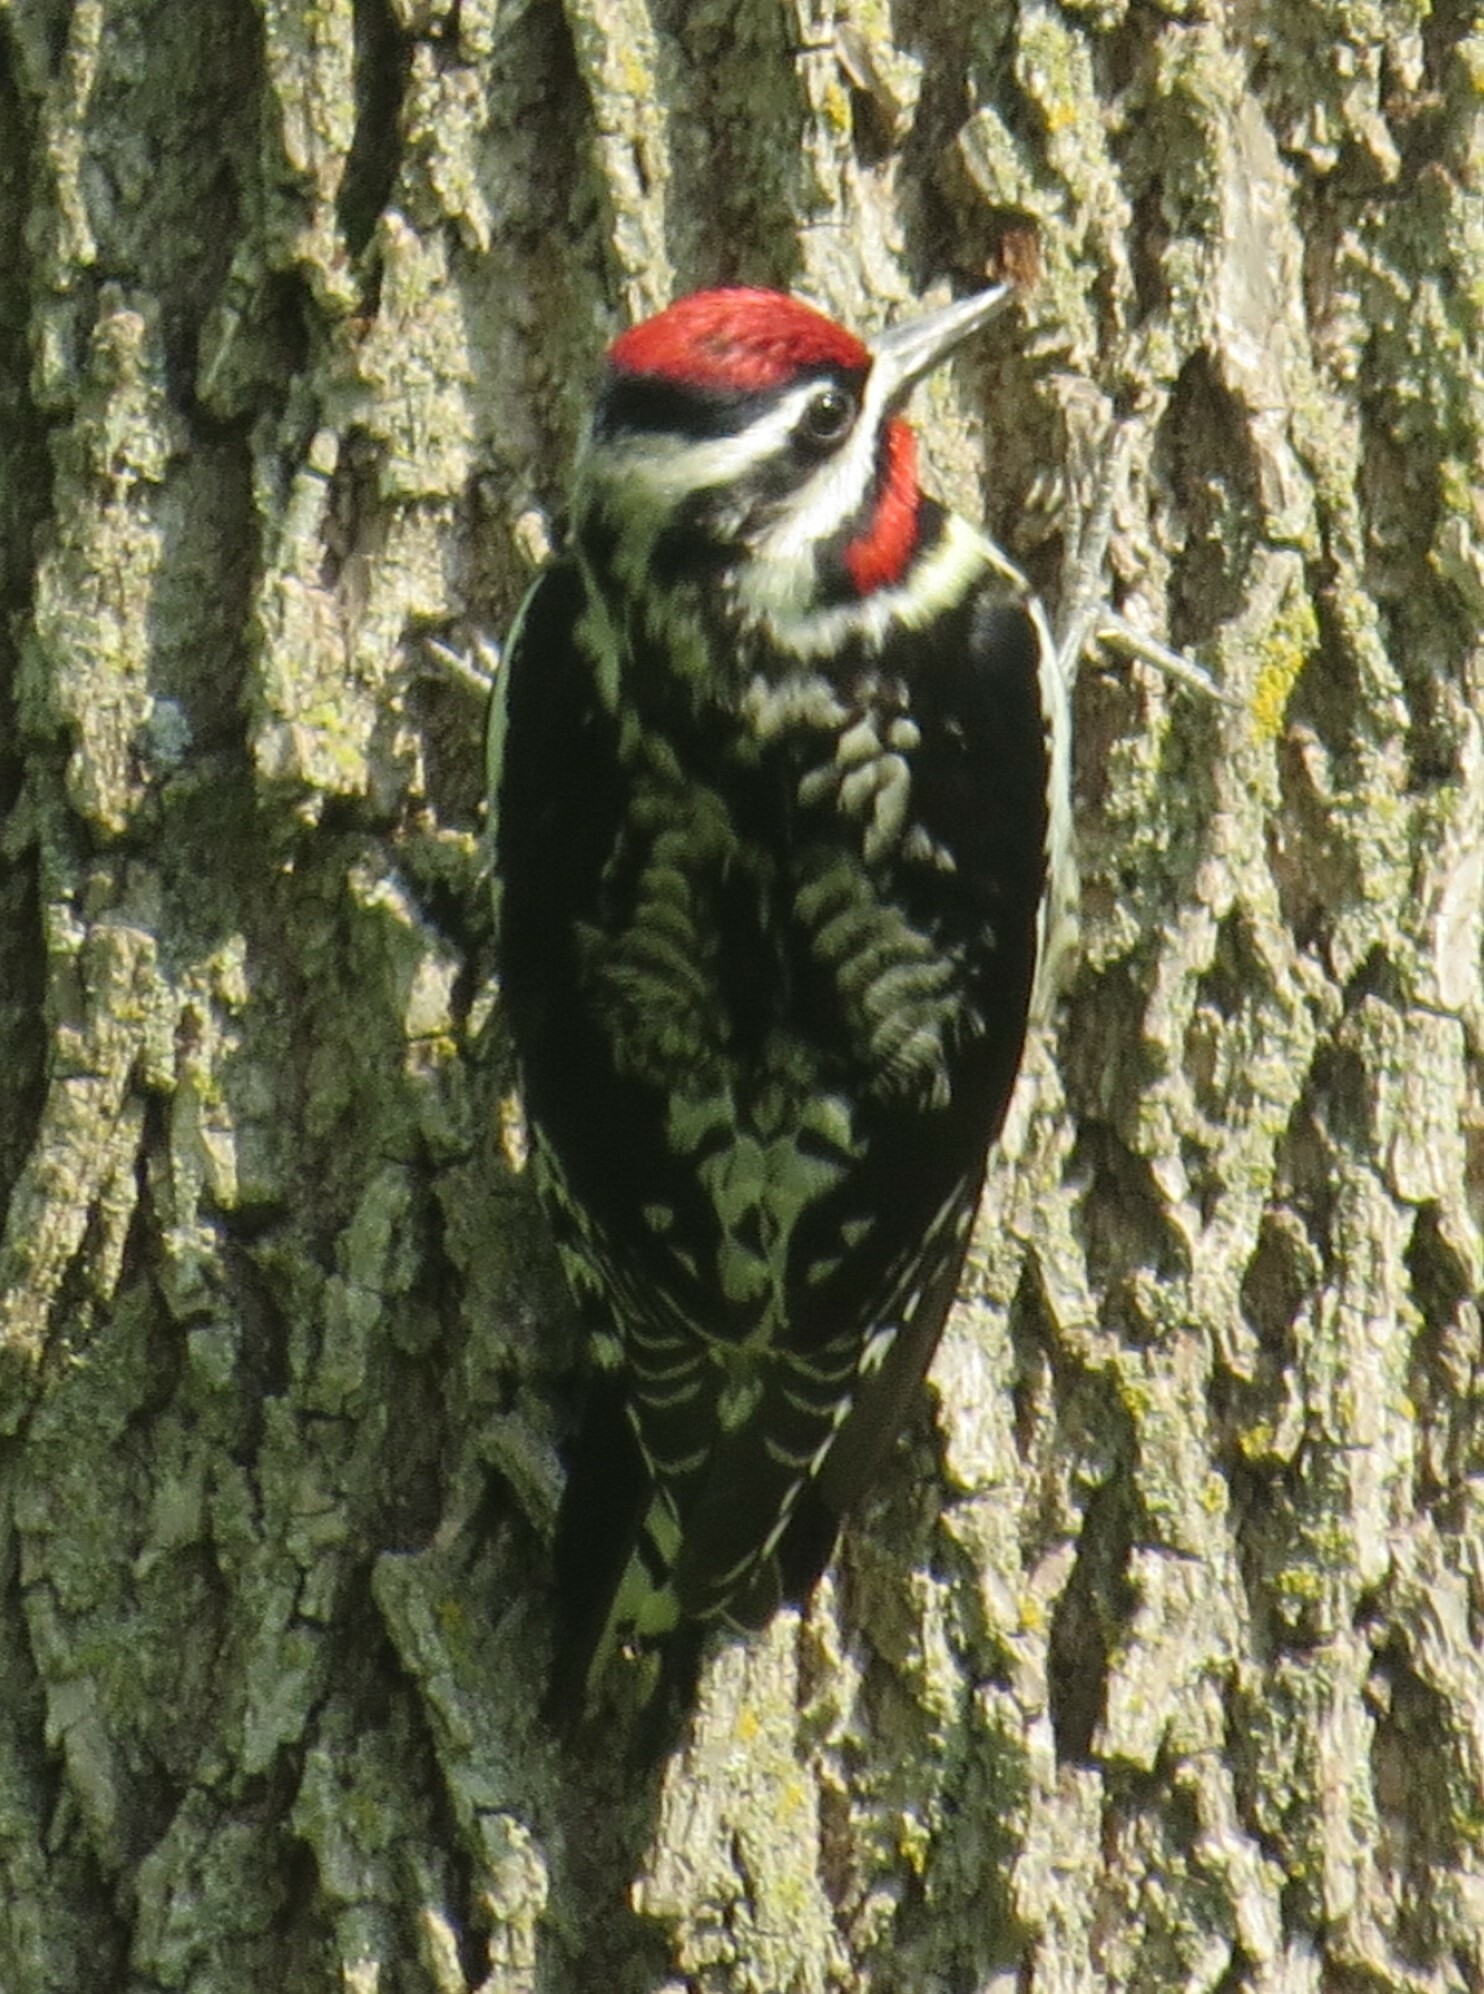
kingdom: Animalia
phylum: Chordata
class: Aves
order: Piciformes
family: Picidae
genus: Sphyrapicus
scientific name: Sphyrapicus varius
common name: Yellow-bellied sapsucker
